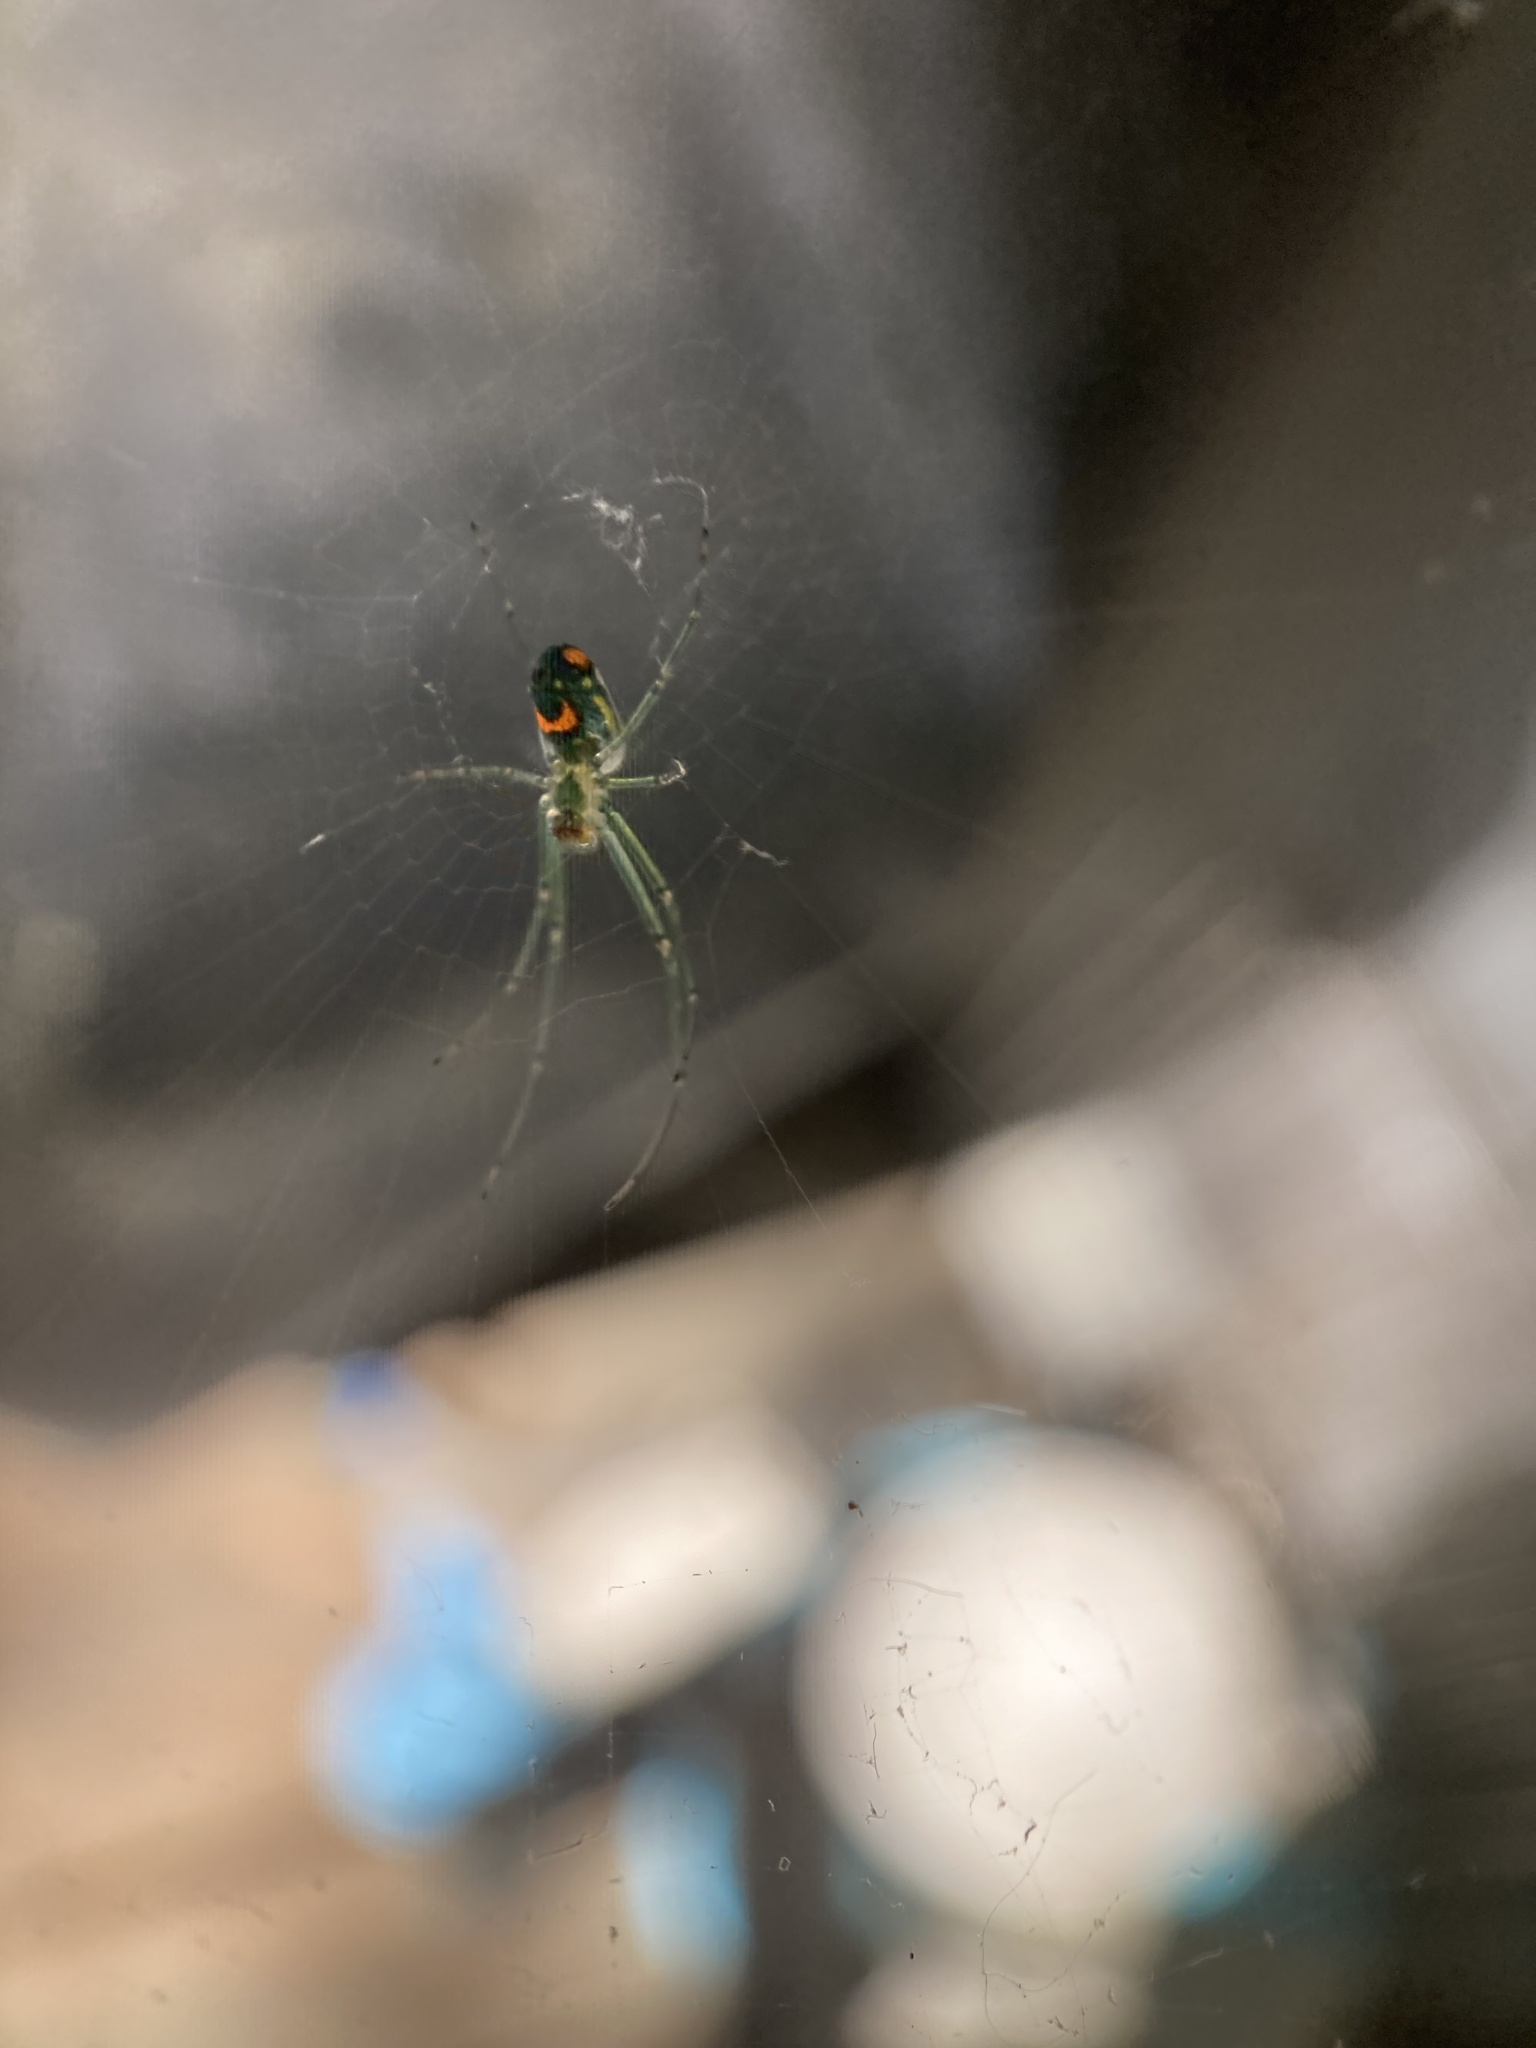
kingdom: Animalia
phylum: Arthropoda
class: Arachnida
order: Araneae
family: Tetragnathidae
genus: Leucauge
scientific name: Leucauge argyrobapta
